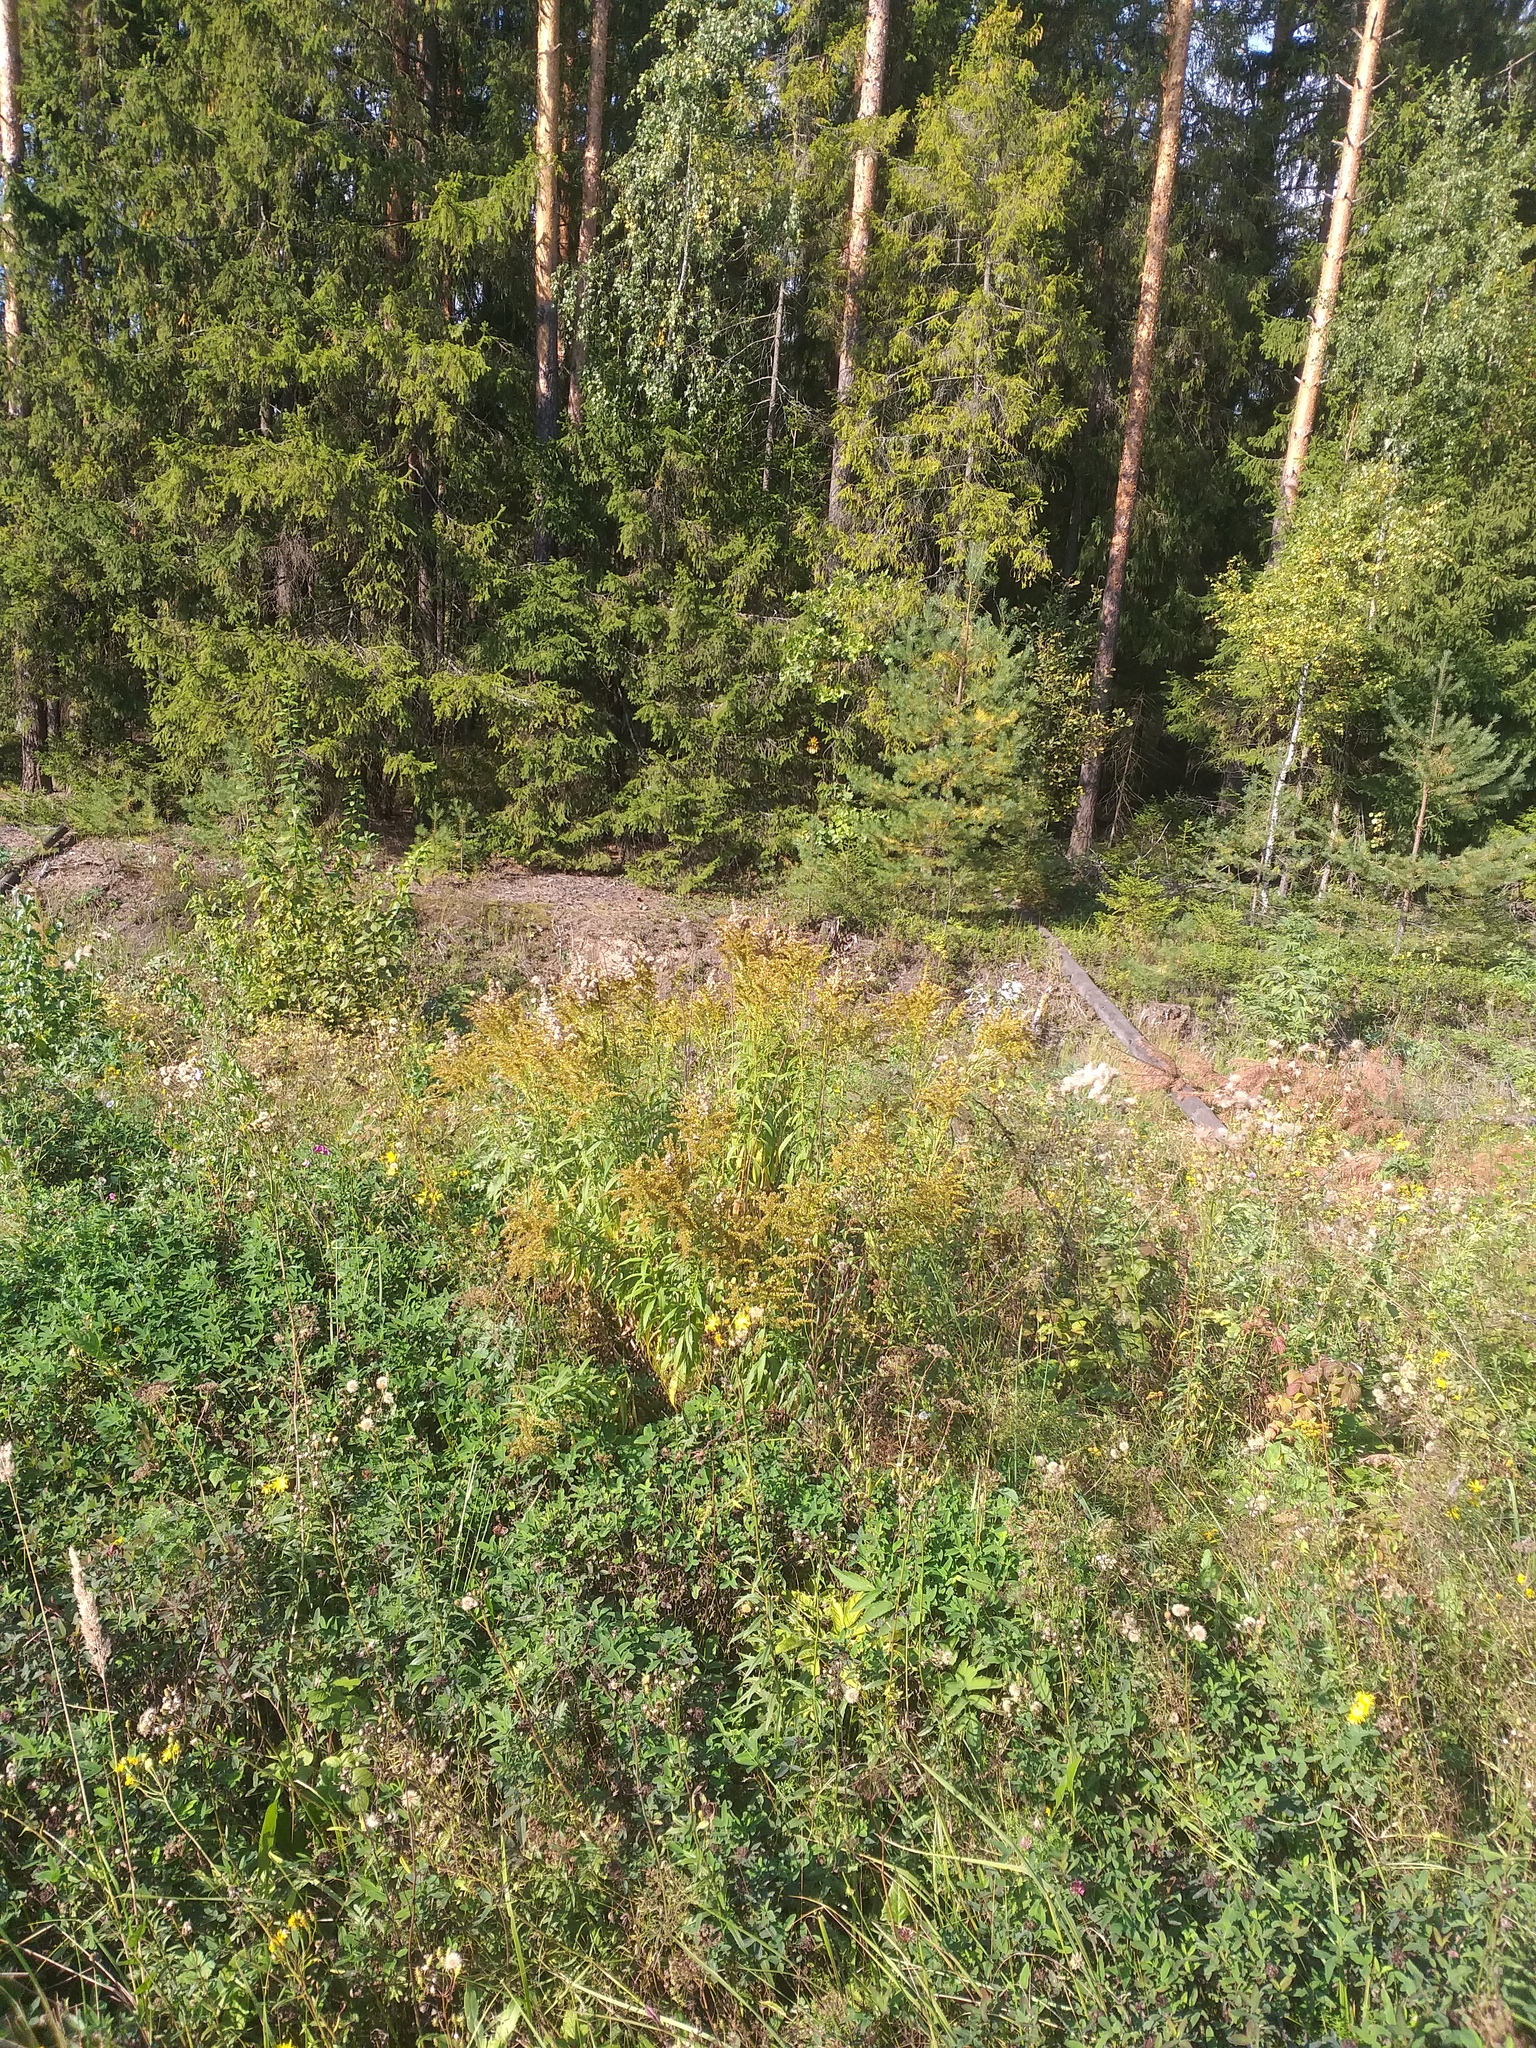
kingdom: Plantae
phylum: Tracheophyta
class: Magnoliopsida
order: Asterales
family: Asteraceae
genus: Solidago
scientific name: Solidago canadensis
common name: Canada goldenrod
